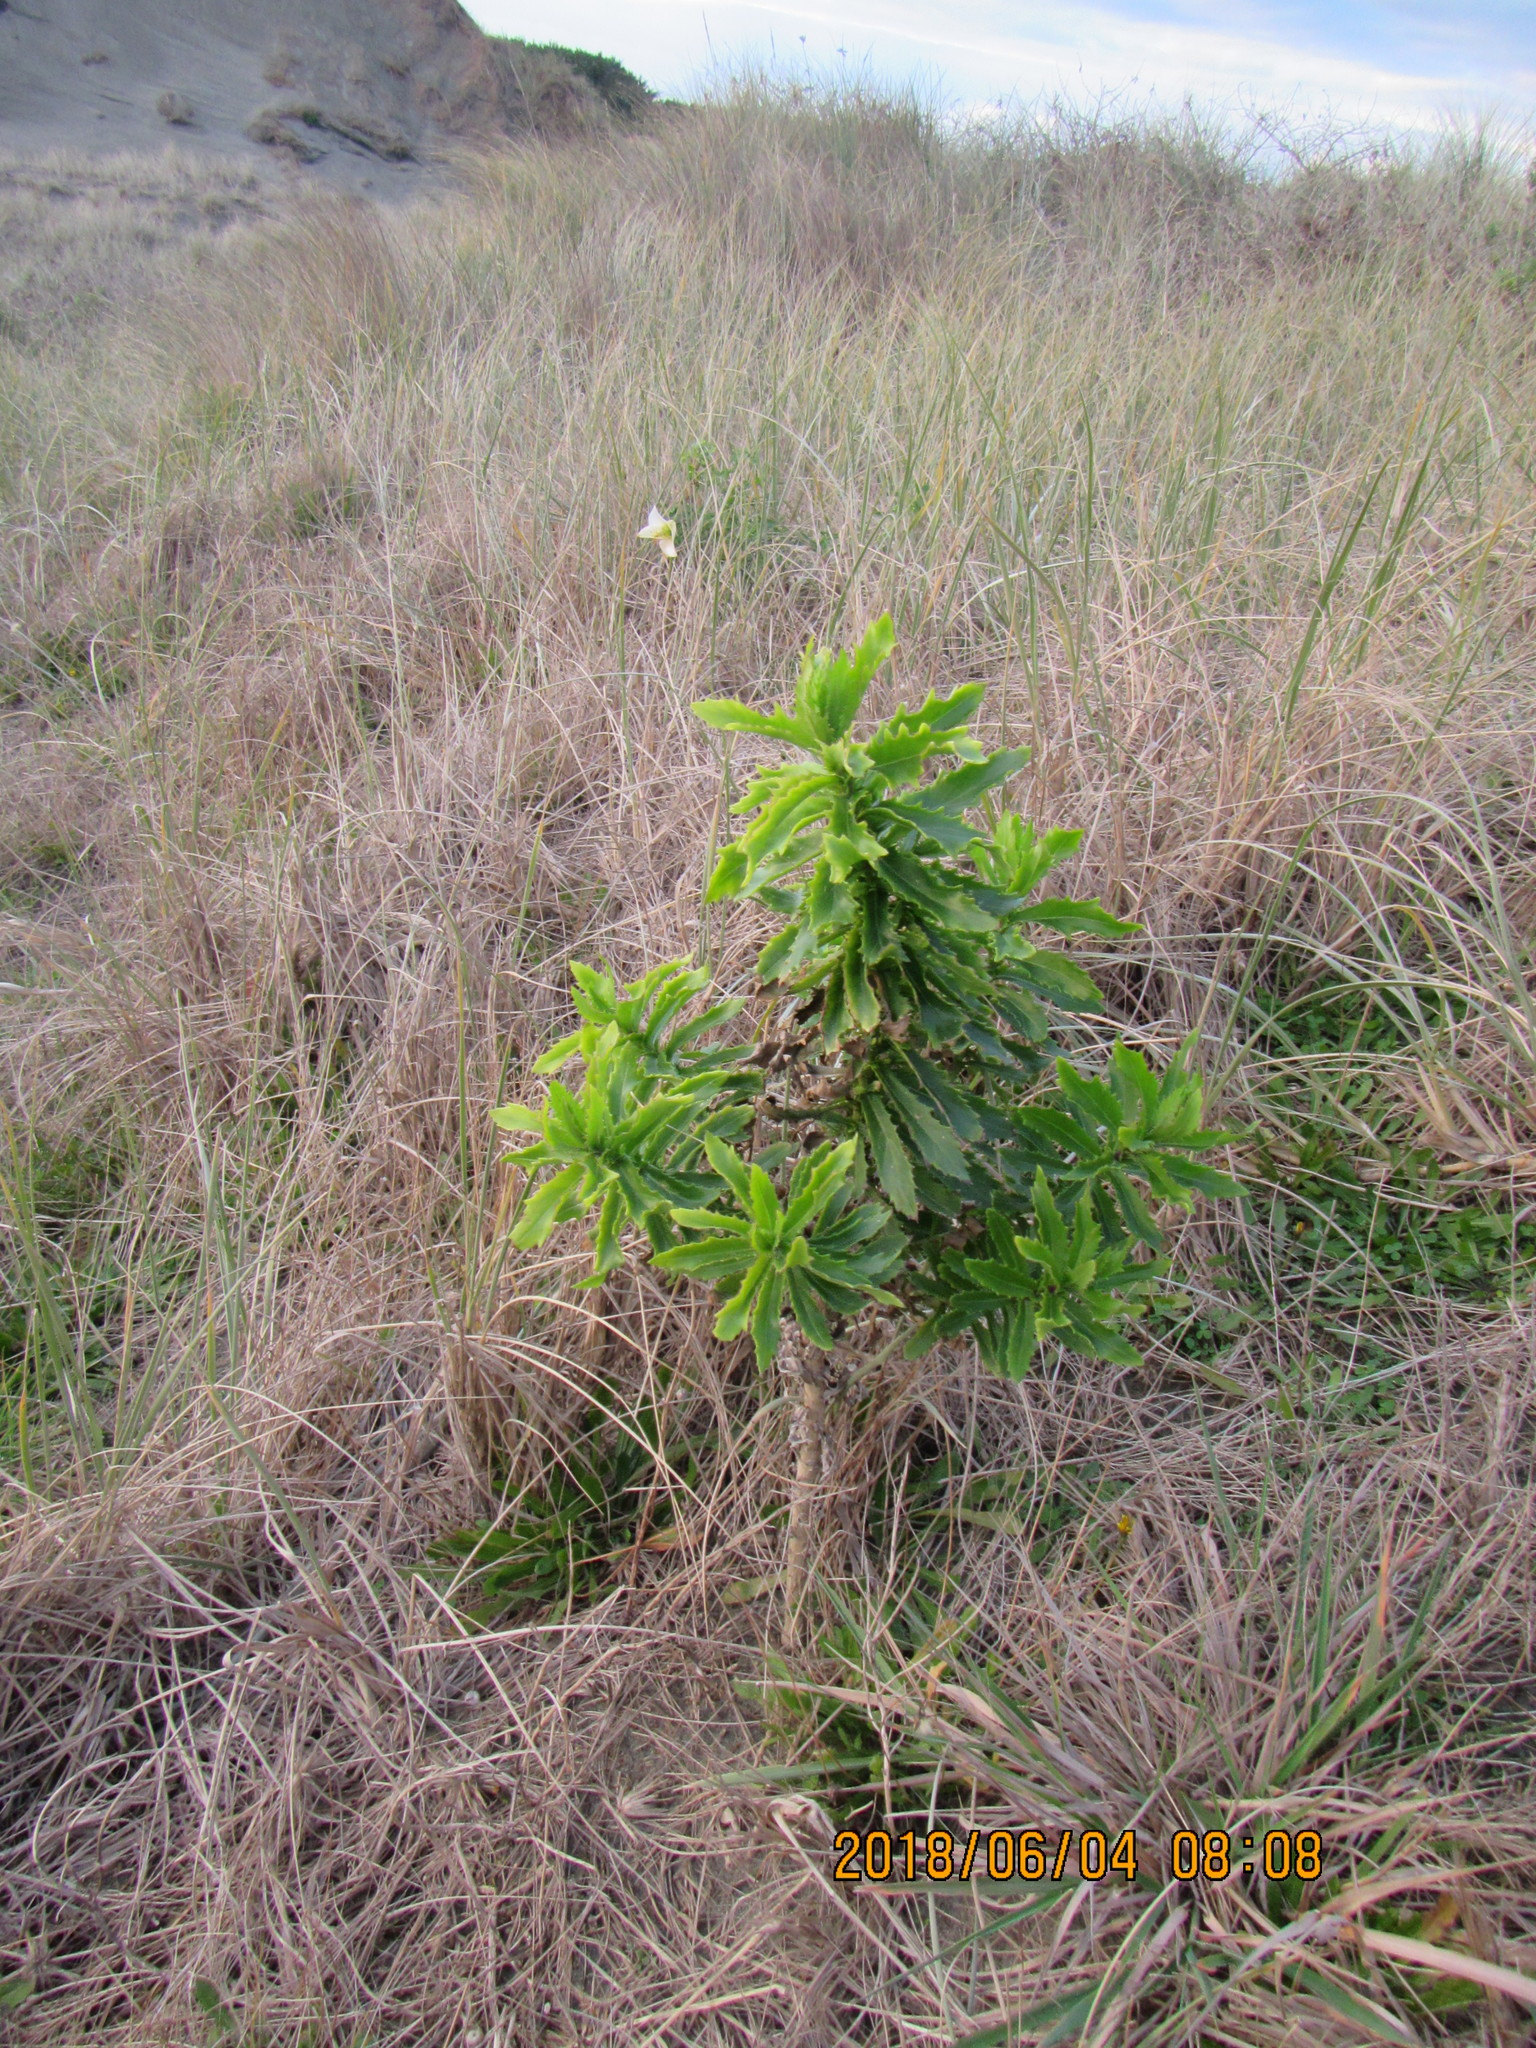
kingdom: Plantae
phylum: Tracheophyta
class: Liliopsida
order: Liliales
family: Liliaceae
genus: Lilium
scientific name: Lilium formosanum
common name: Formosa lily
